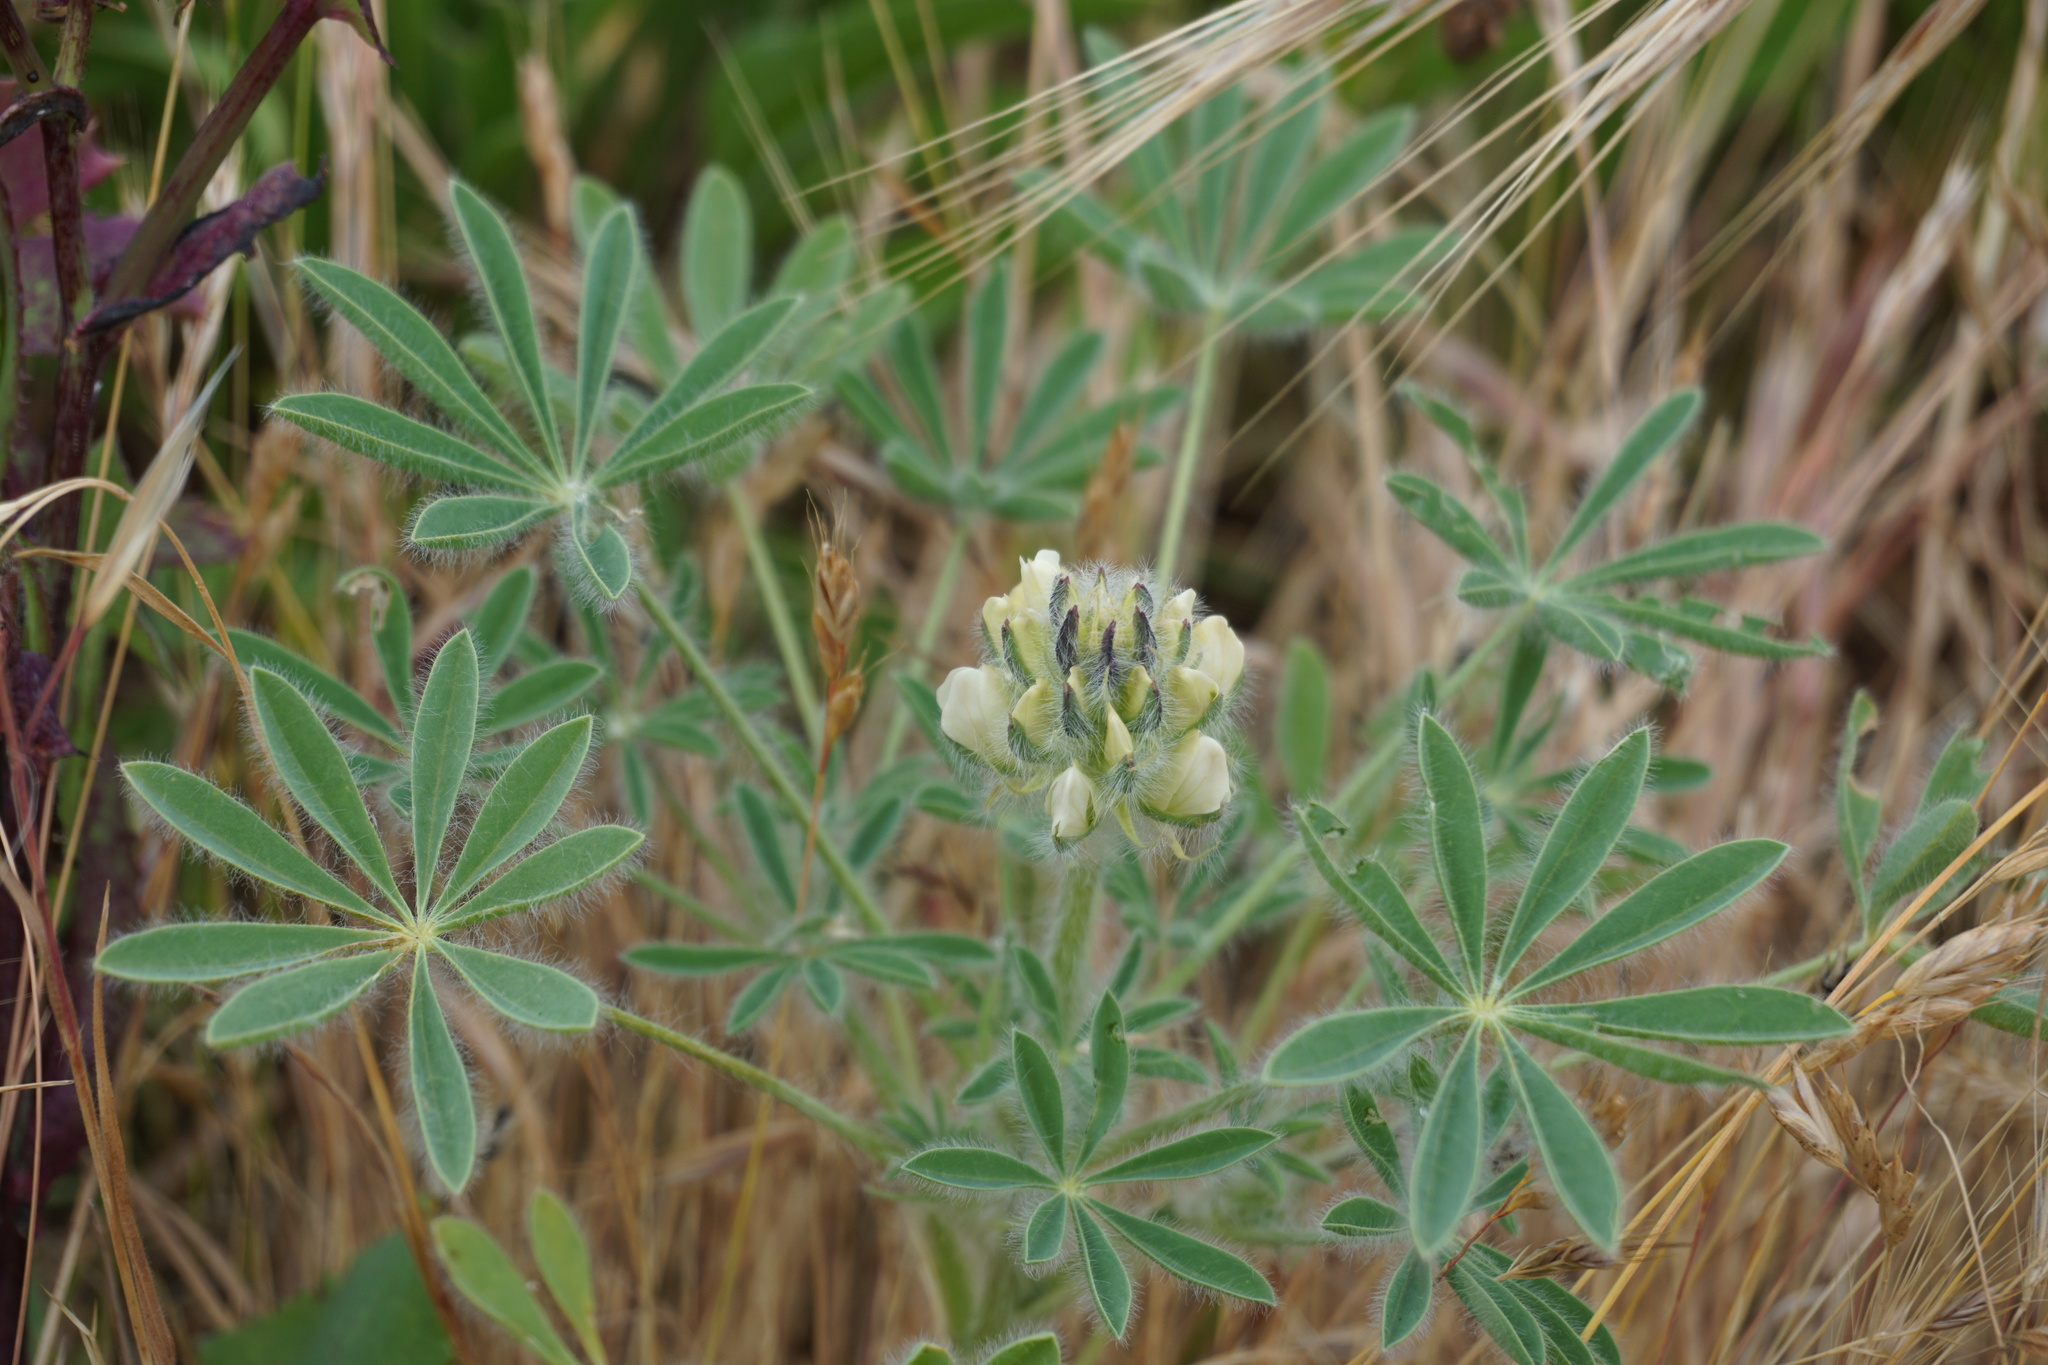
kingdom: Plantae
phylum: Tracheophyta
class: Magnoliopsida
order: Fabales
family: Fabaceae
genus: Lupinus
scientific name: Lupinus densiflorus
